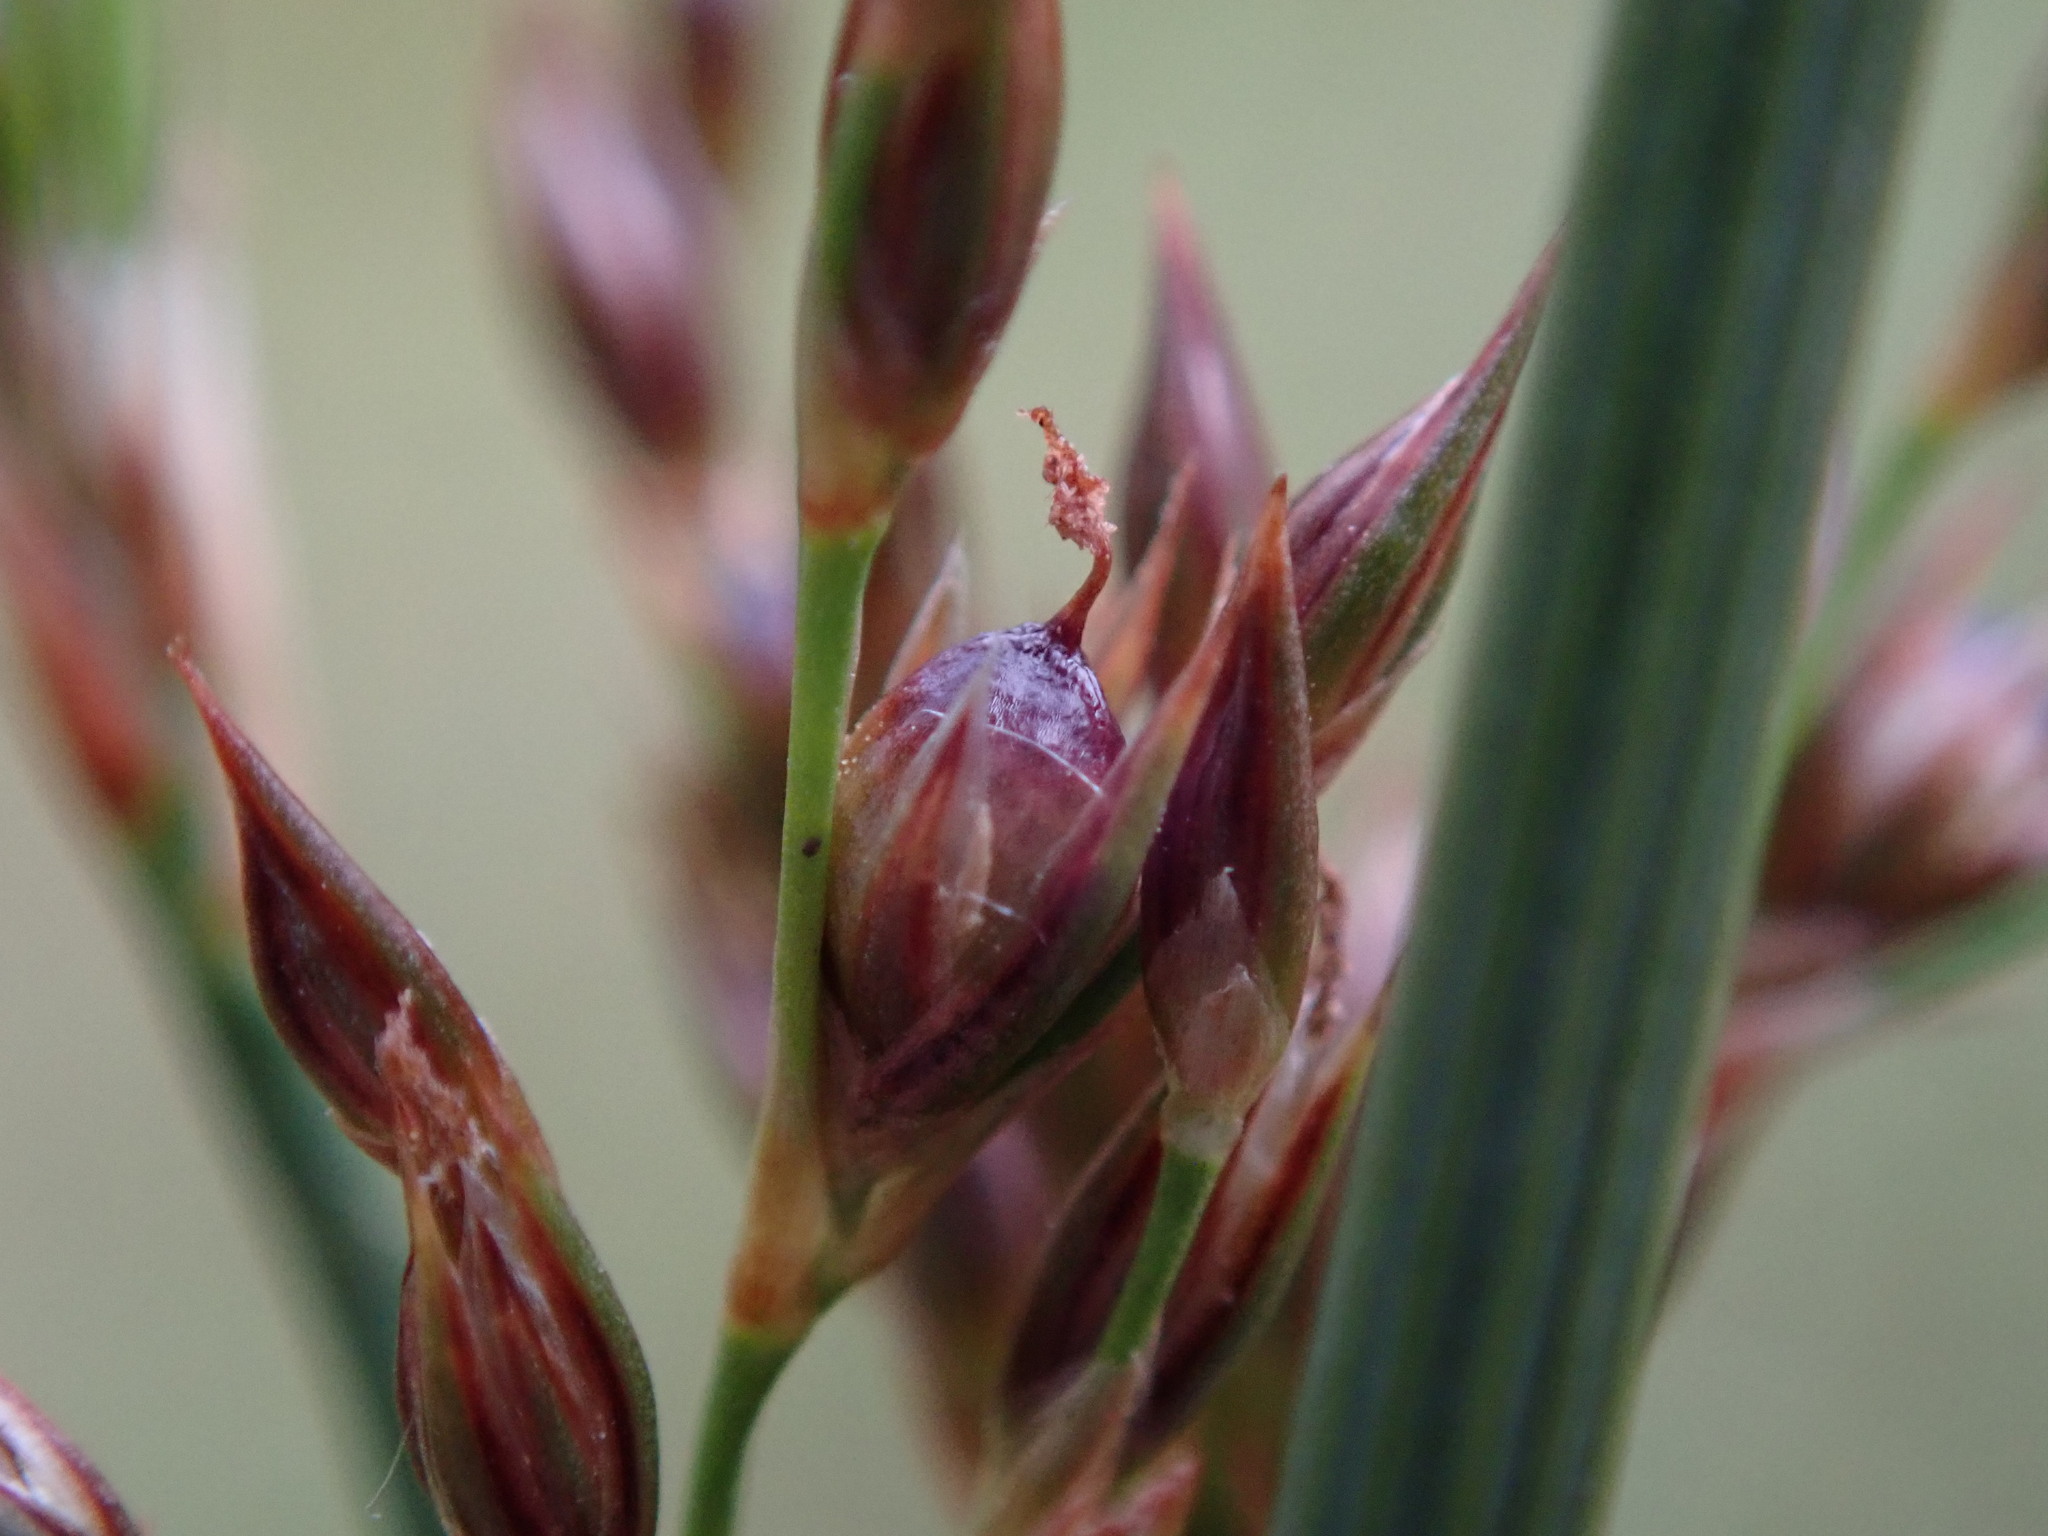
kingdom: Plantae
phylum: Tracheophyta
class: Liliopsida
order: Poales
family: Juncaceae
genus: Juncus
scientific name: Juncus inflexus
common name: Hard rush
